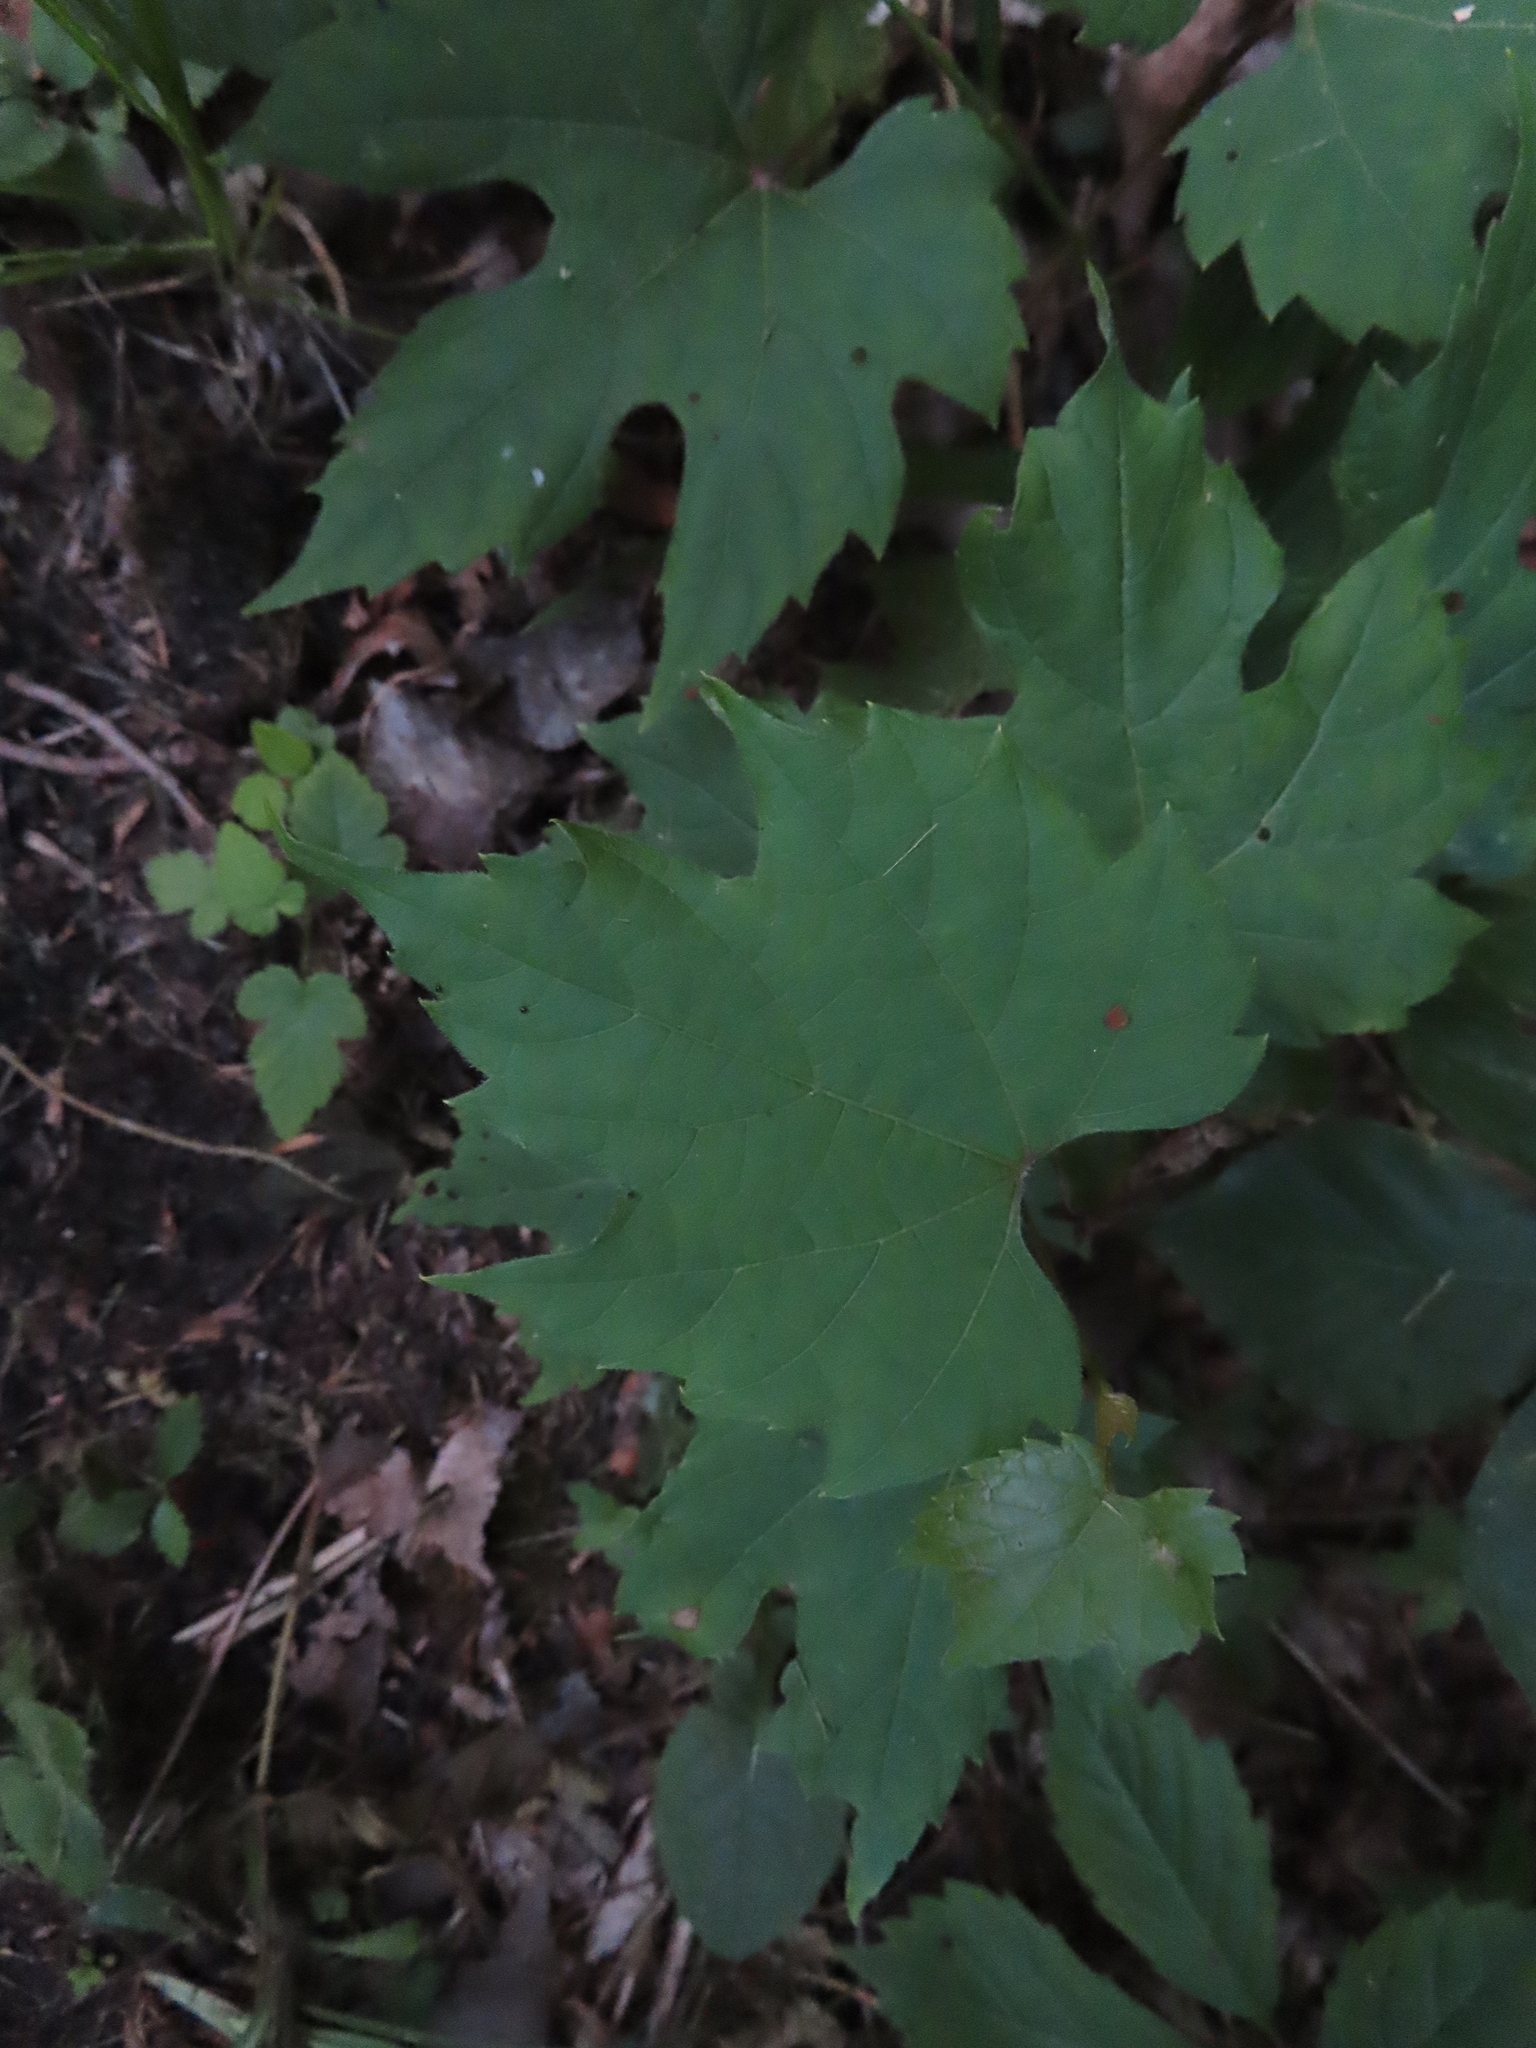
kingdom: Plantae
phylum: Tracheophyta
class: Magnoliopsida
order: Vitales
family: Vitaceae
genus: Vitis
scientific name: Vitis riparia
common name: Frost grape
